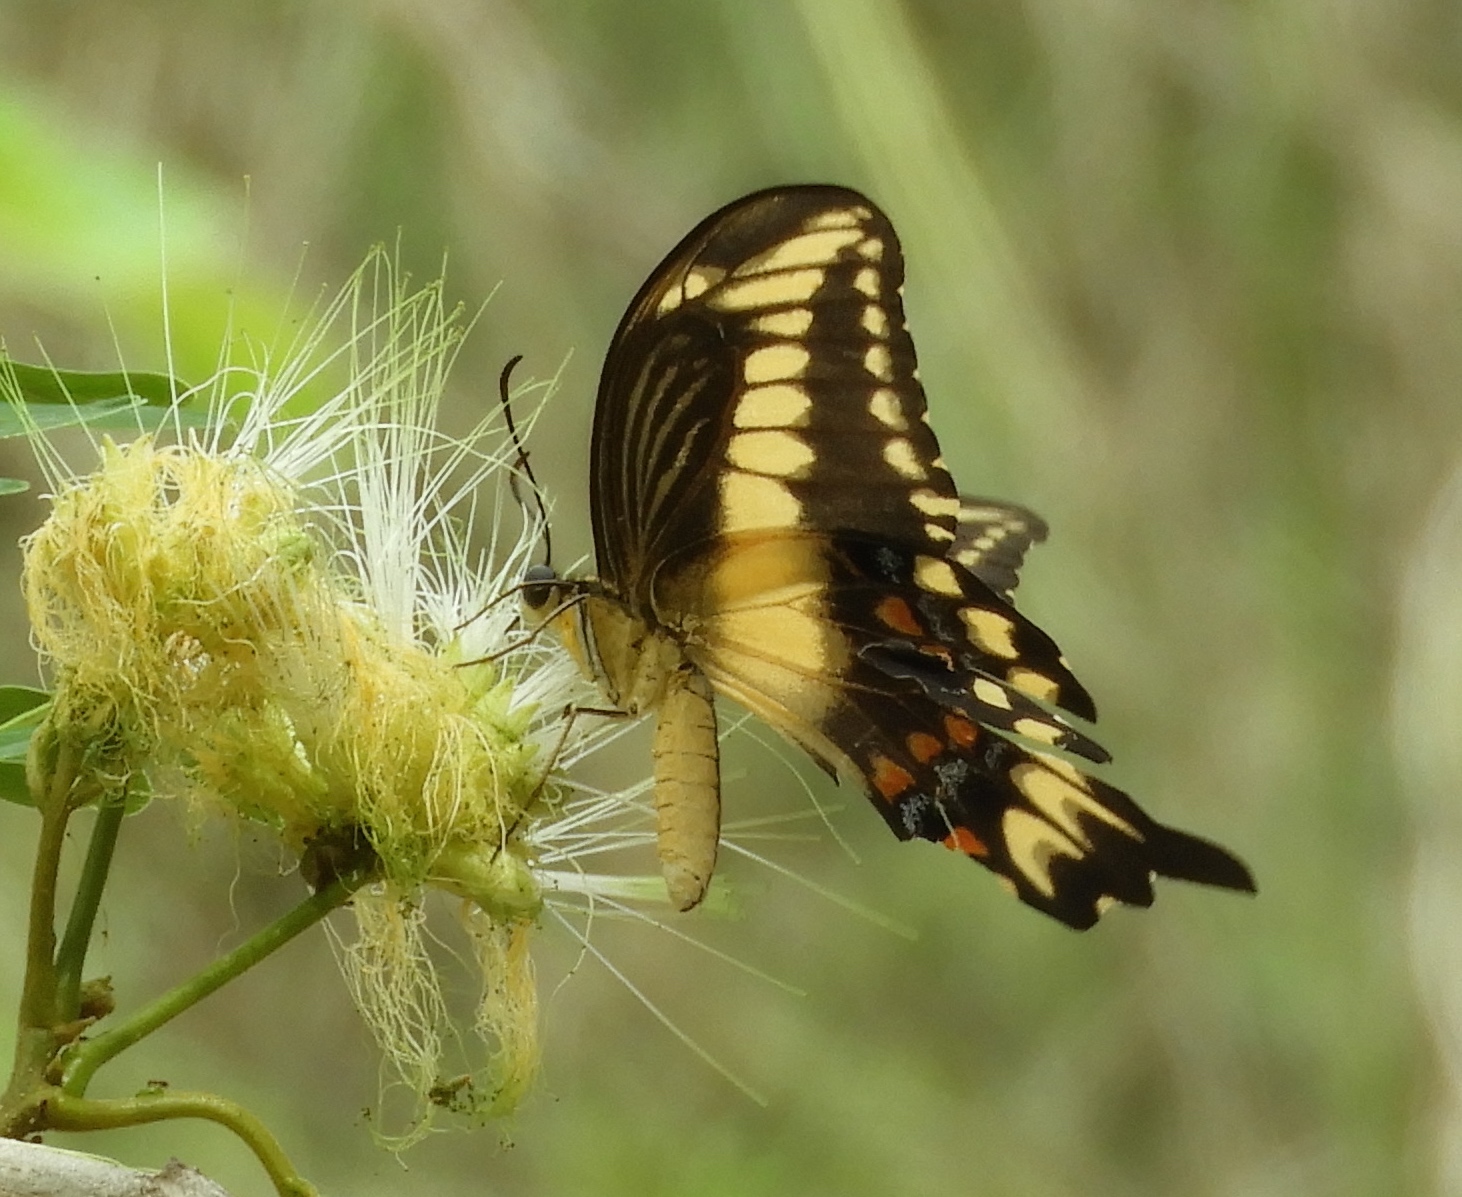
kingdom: Animalia
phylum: Arthropoda
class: Insecta
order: Lepidoptera
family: Papilionidae
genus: Heraclides
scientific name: Heraclides pallas
